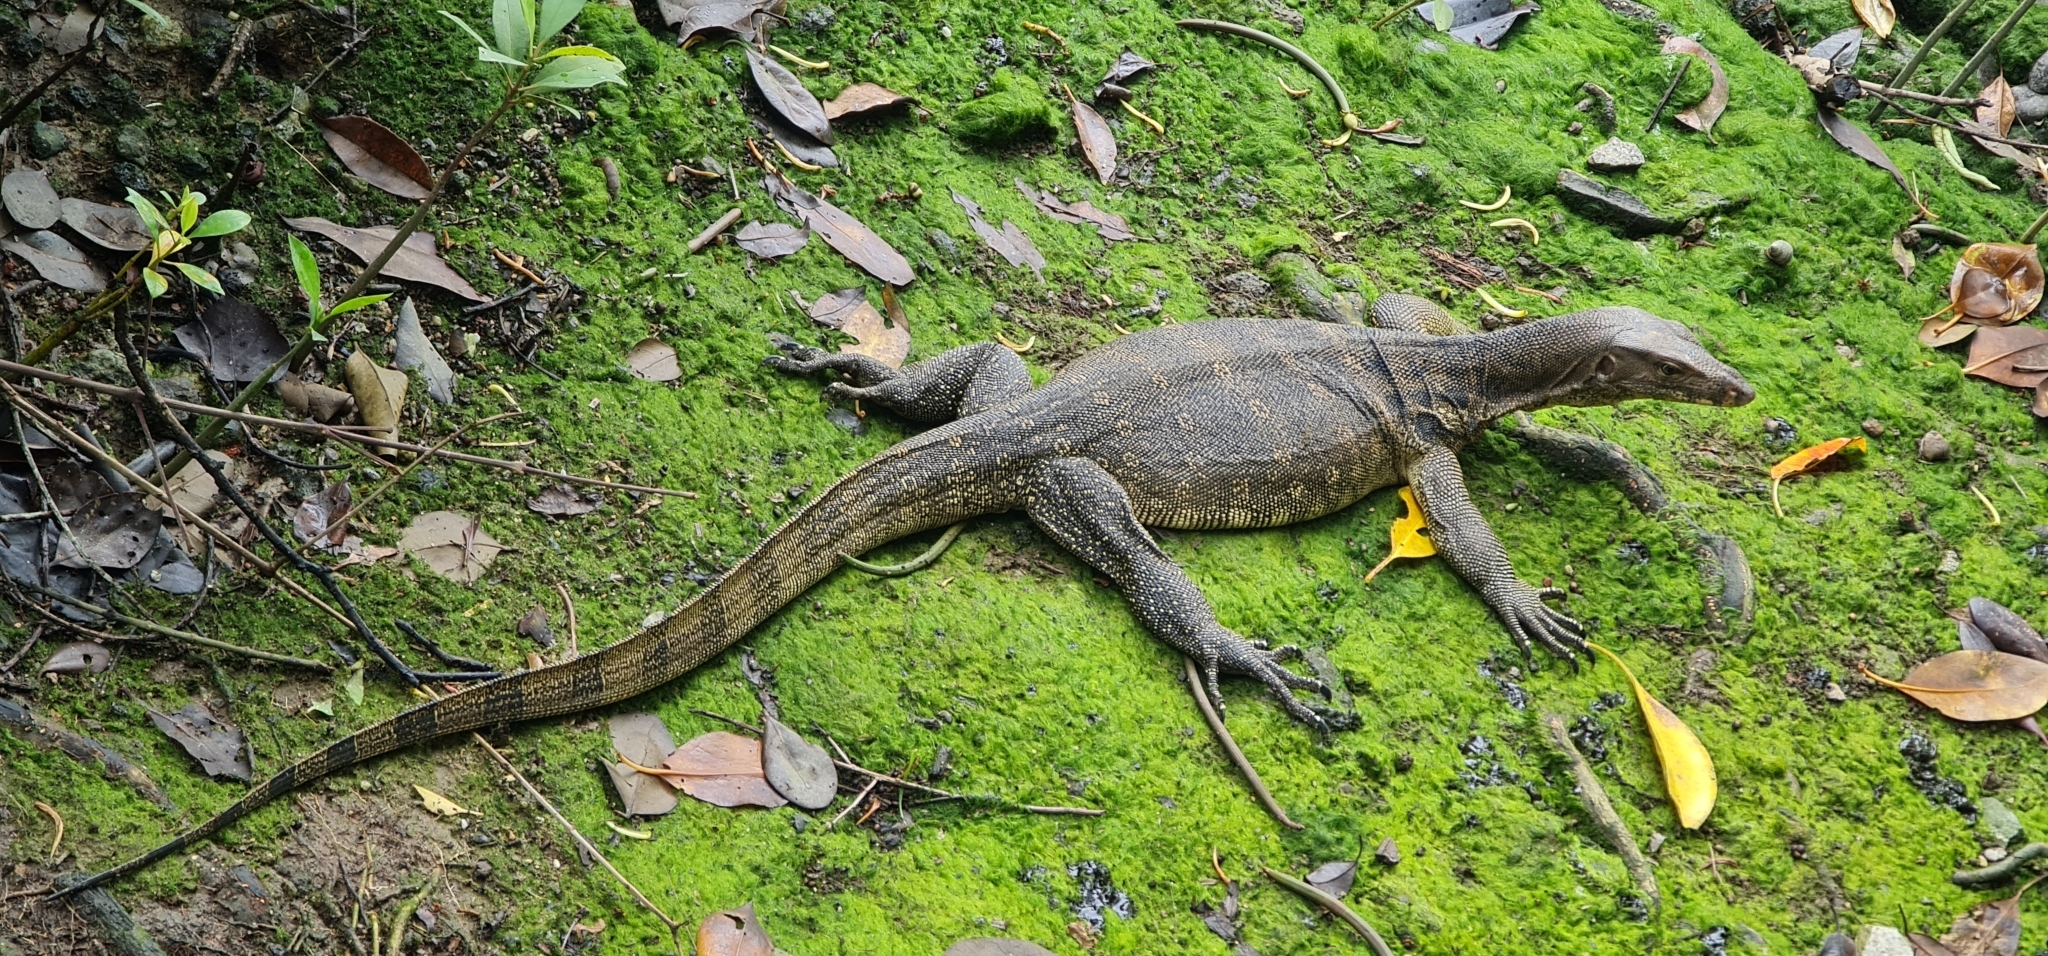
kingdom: Animalia
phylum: Chordata
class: Squamata
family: Varanidae
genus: Varanus
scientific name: Varanus salvator
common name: Common water monitor
